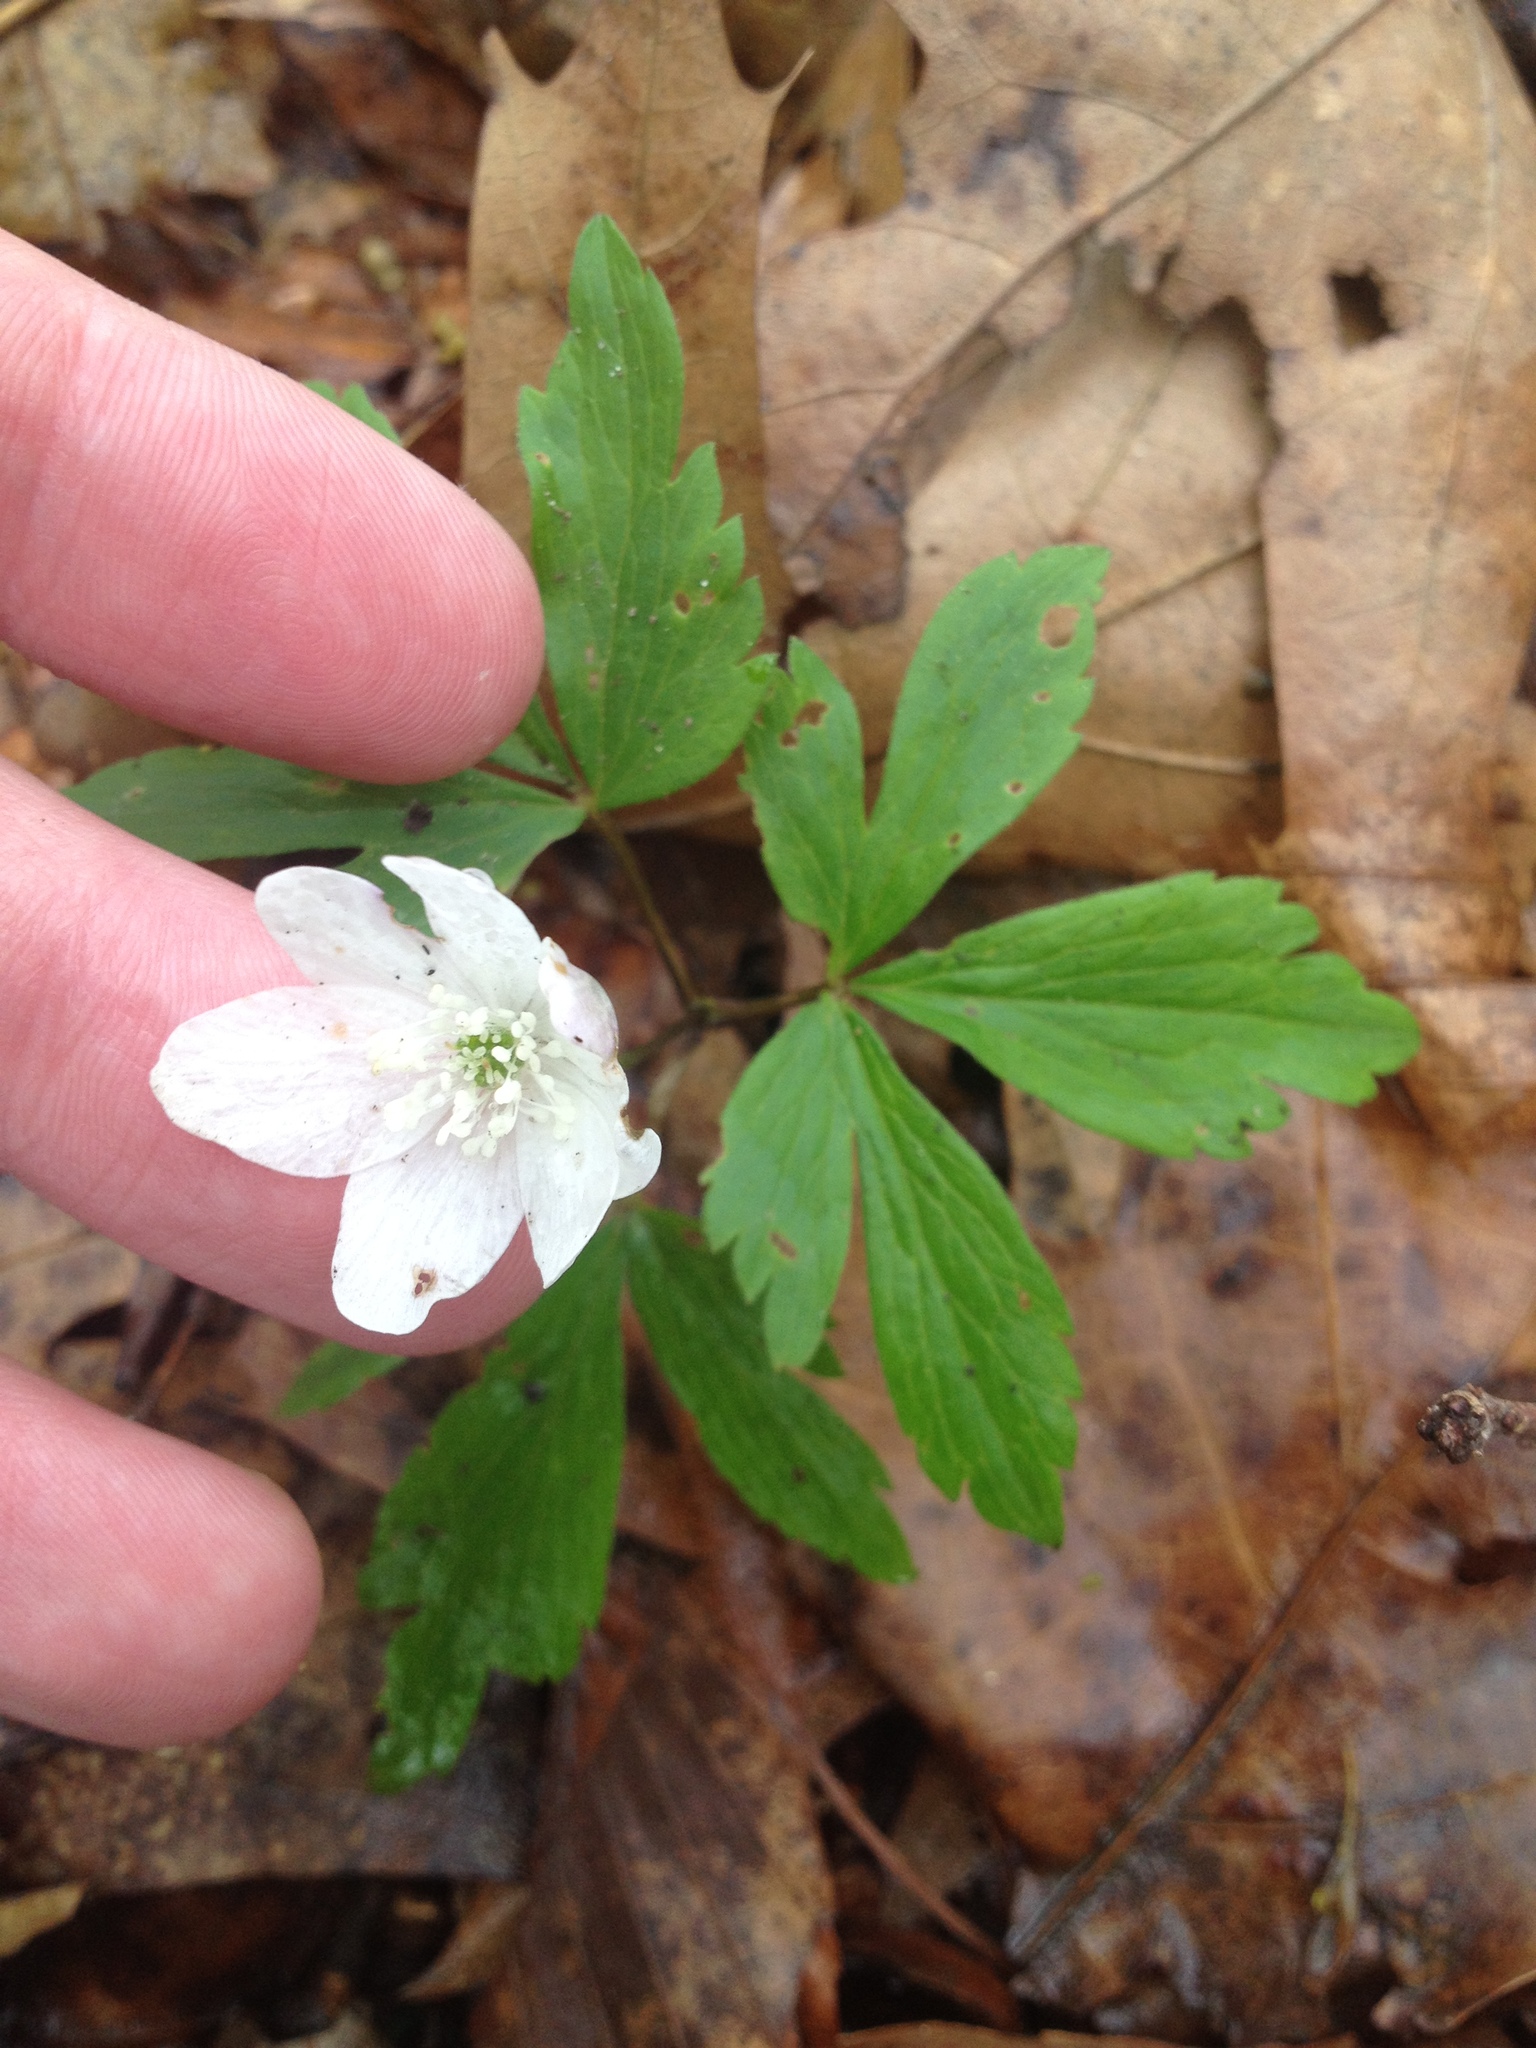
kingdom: Plantae
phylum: Tracheophyta
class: Magnoliopsida
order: Ranunculales
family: Ranunculaceae
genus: Anemone
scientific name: Anemone quinquefolia
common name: Wood anemone
